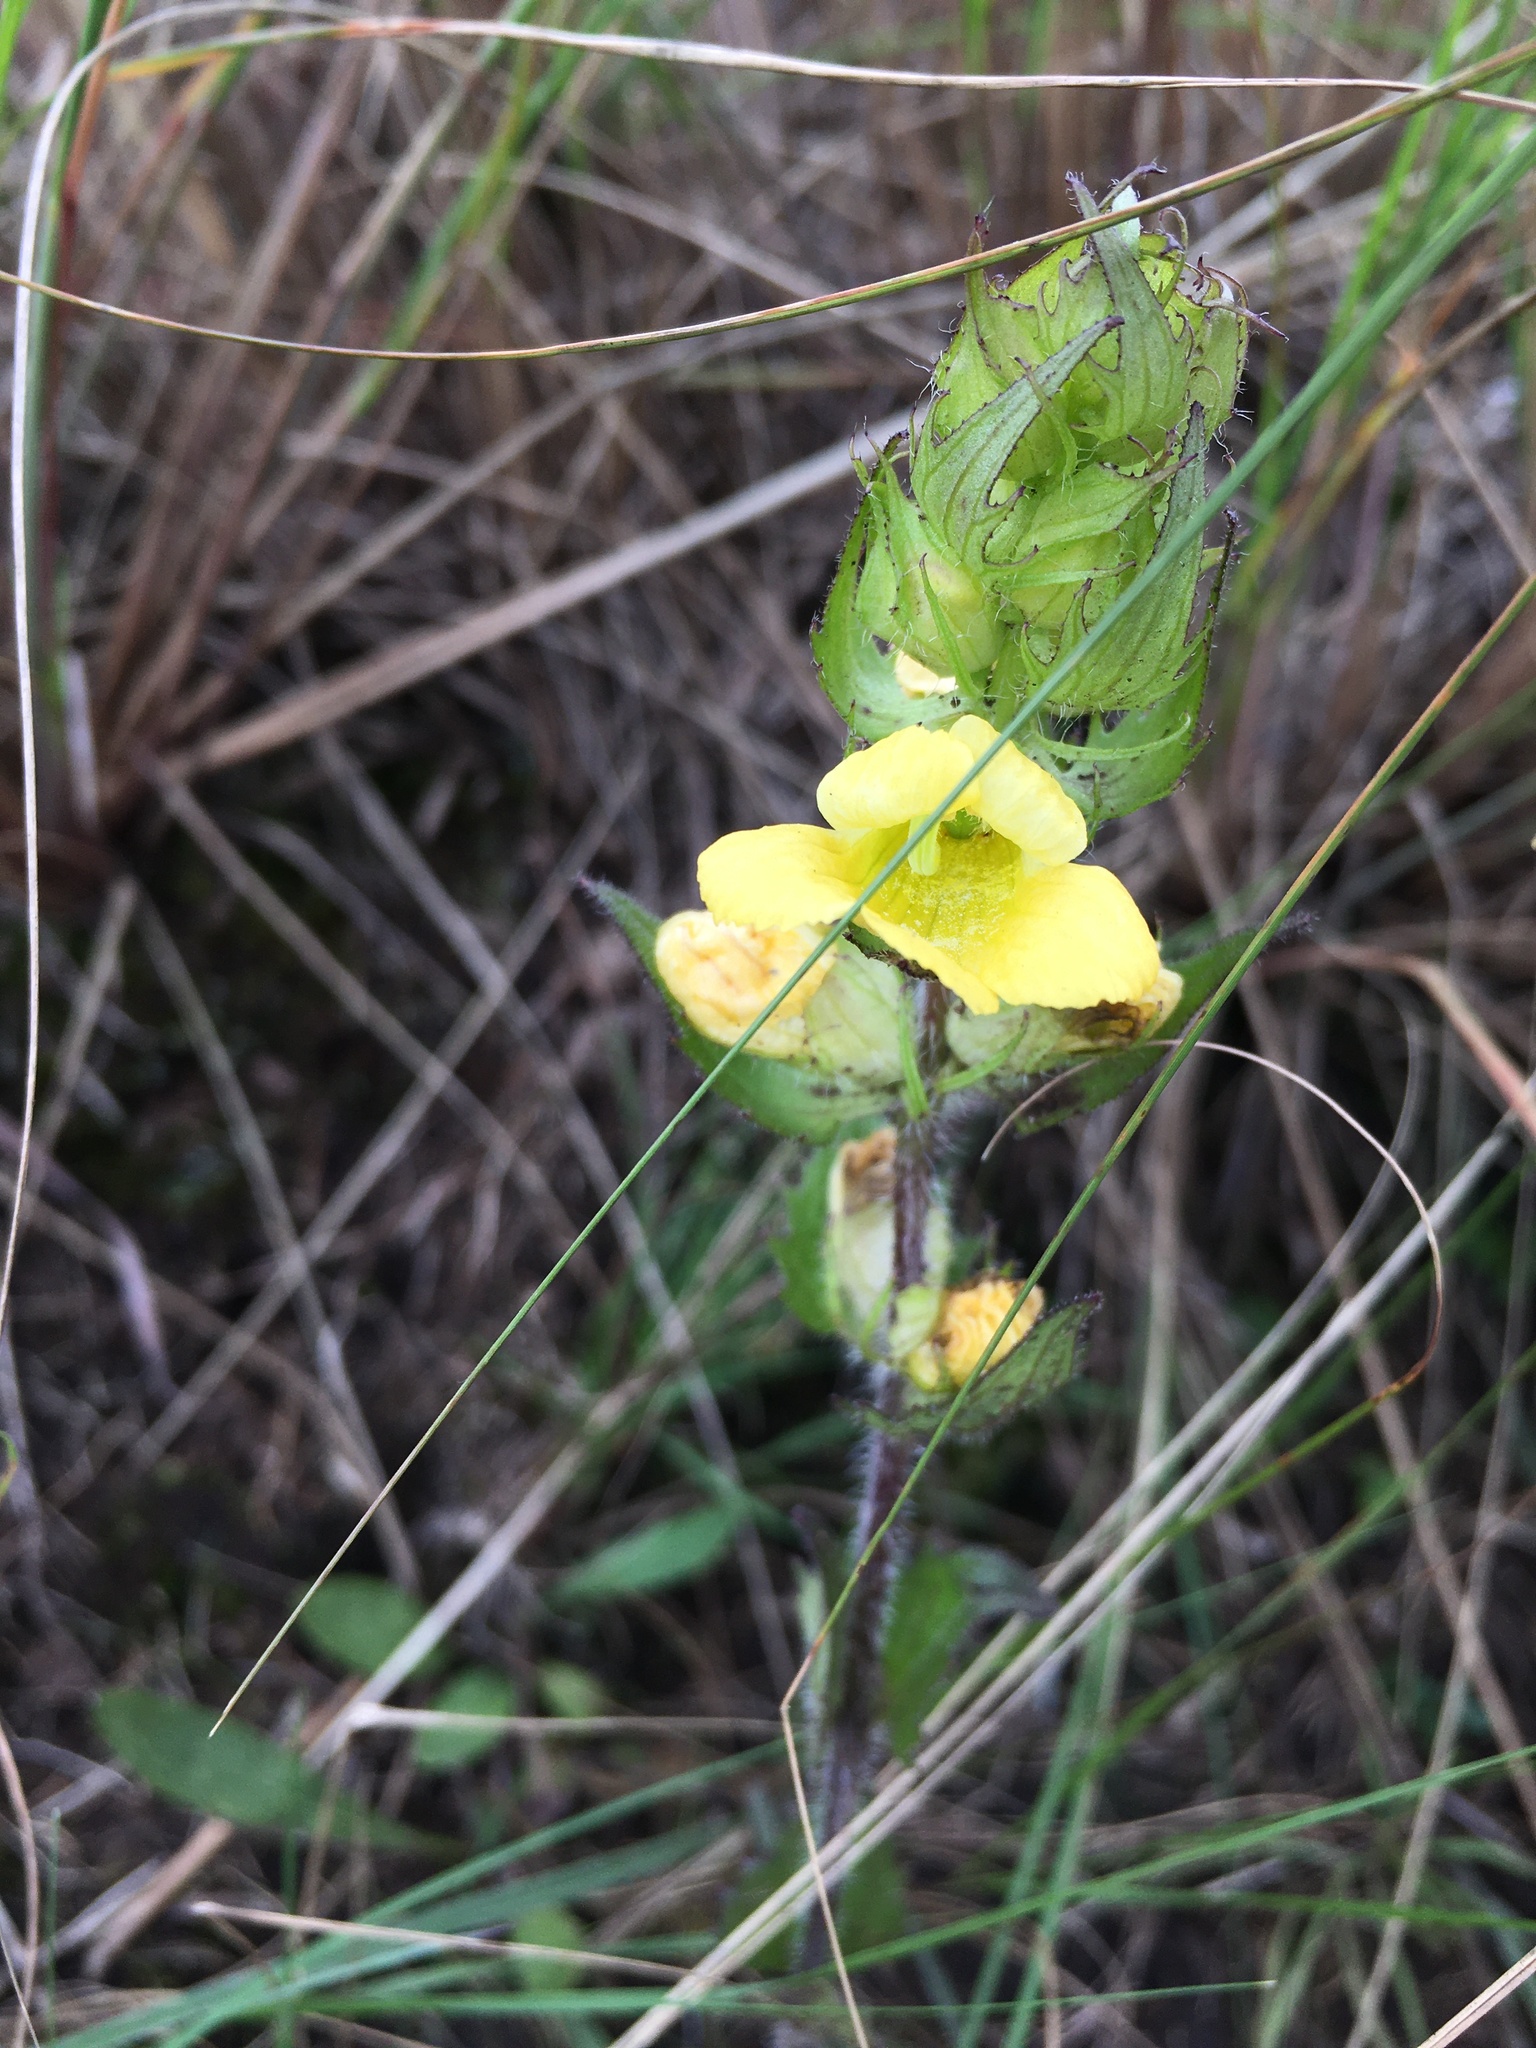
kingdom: Plantae
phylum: Tracheophyta
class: Magnoliopsida
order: Lamiales
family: Orobanchaceae
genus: Alectra
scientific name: Alectra sessiliflora
